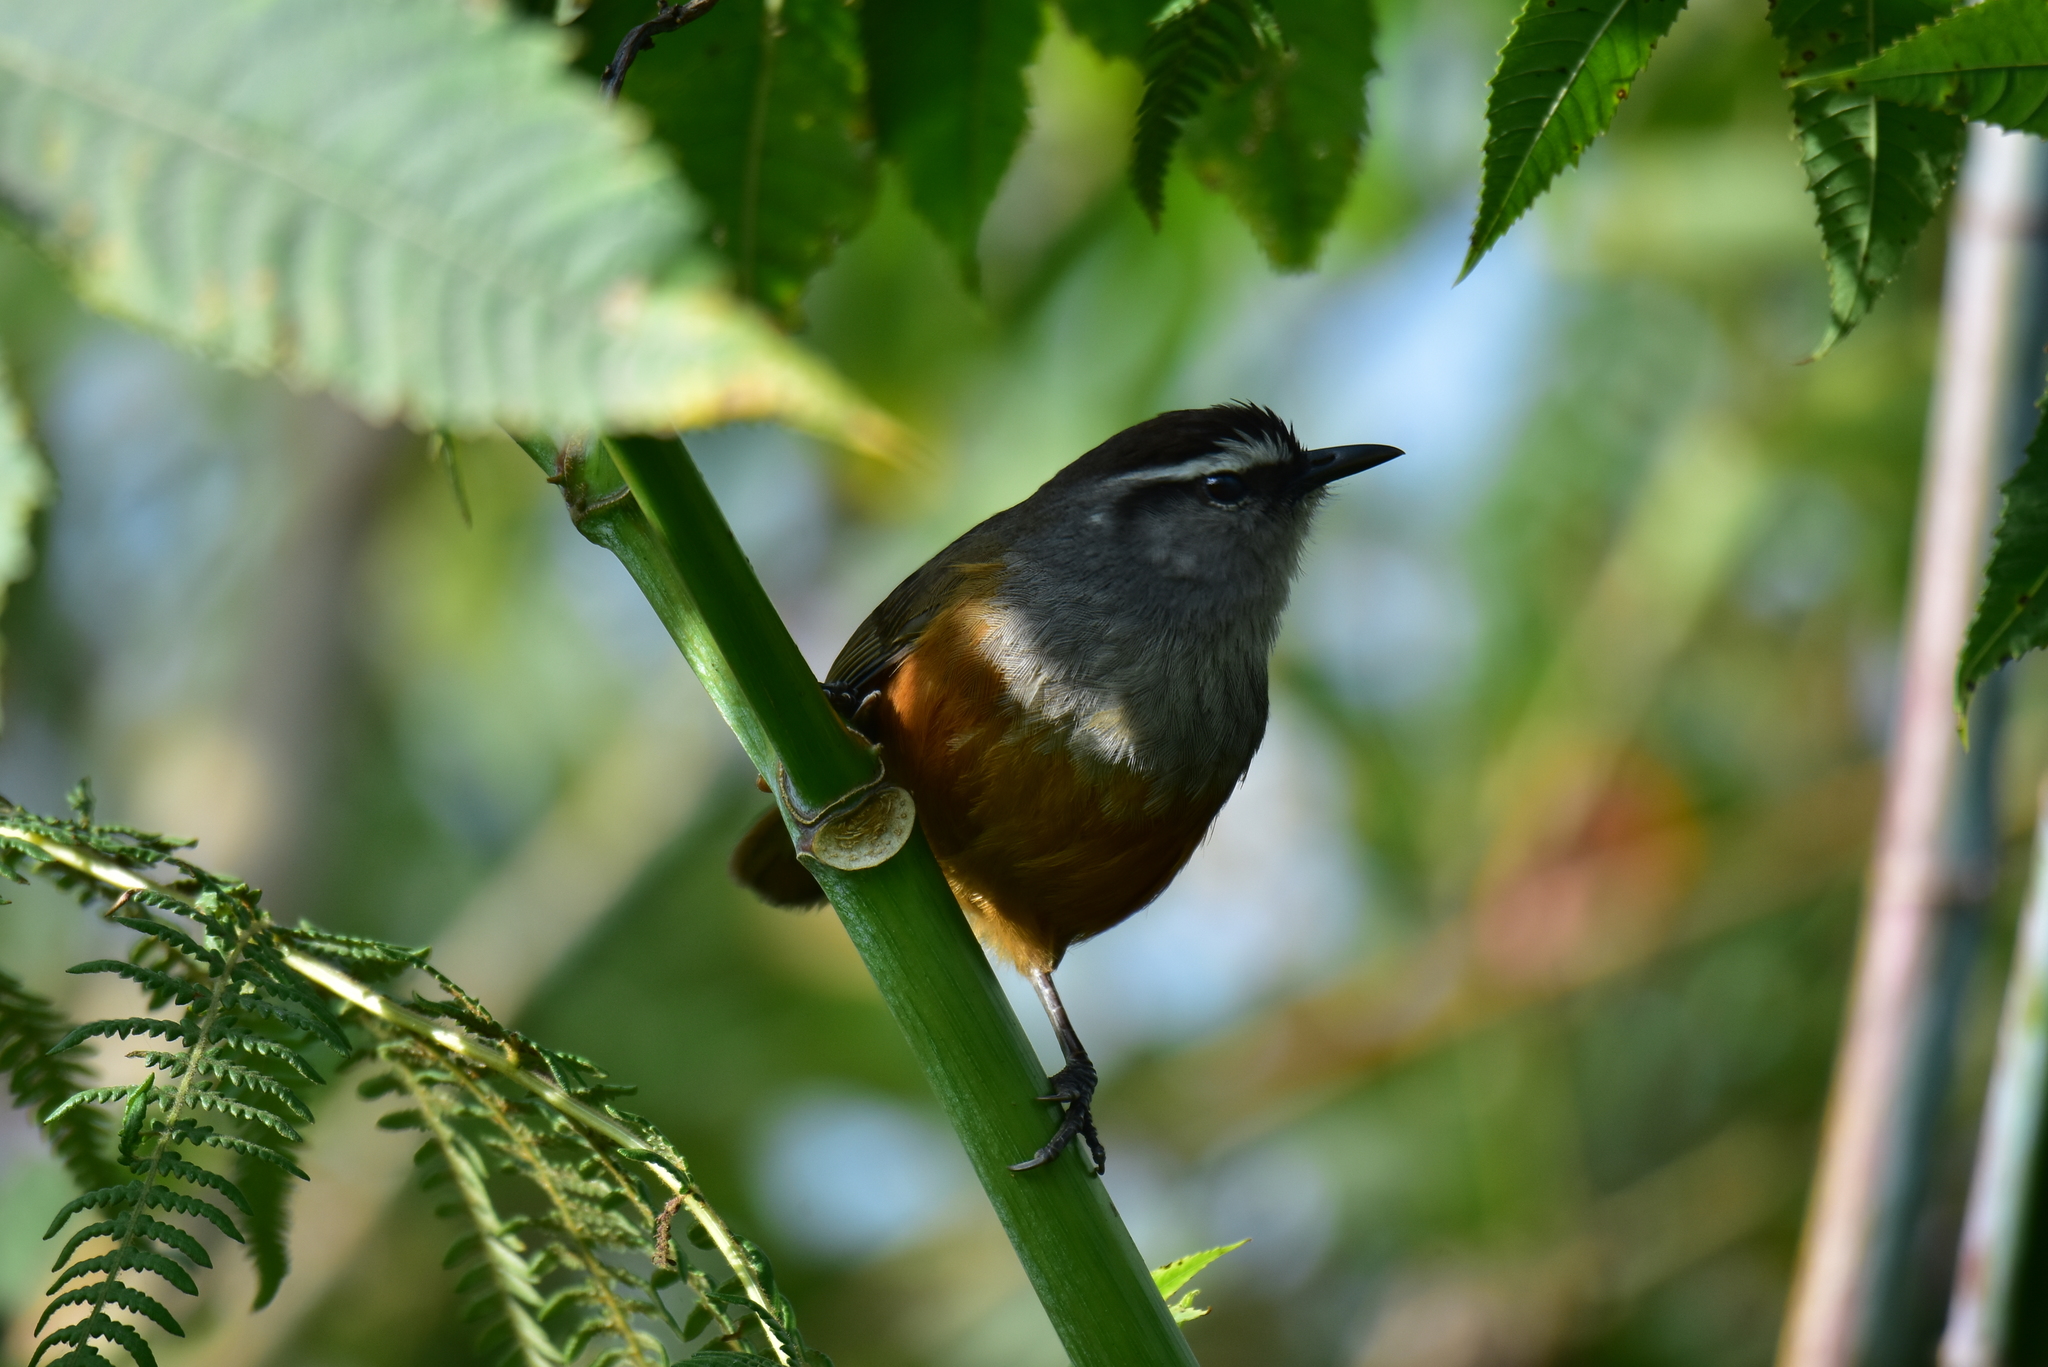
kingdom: Animalia
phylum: Chordata
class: Aves
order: Passeriformes
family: Leiothrichidae
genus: Trochalopteron
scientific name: Trochalopteron fairbanki
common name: Kerala laughingthrush
